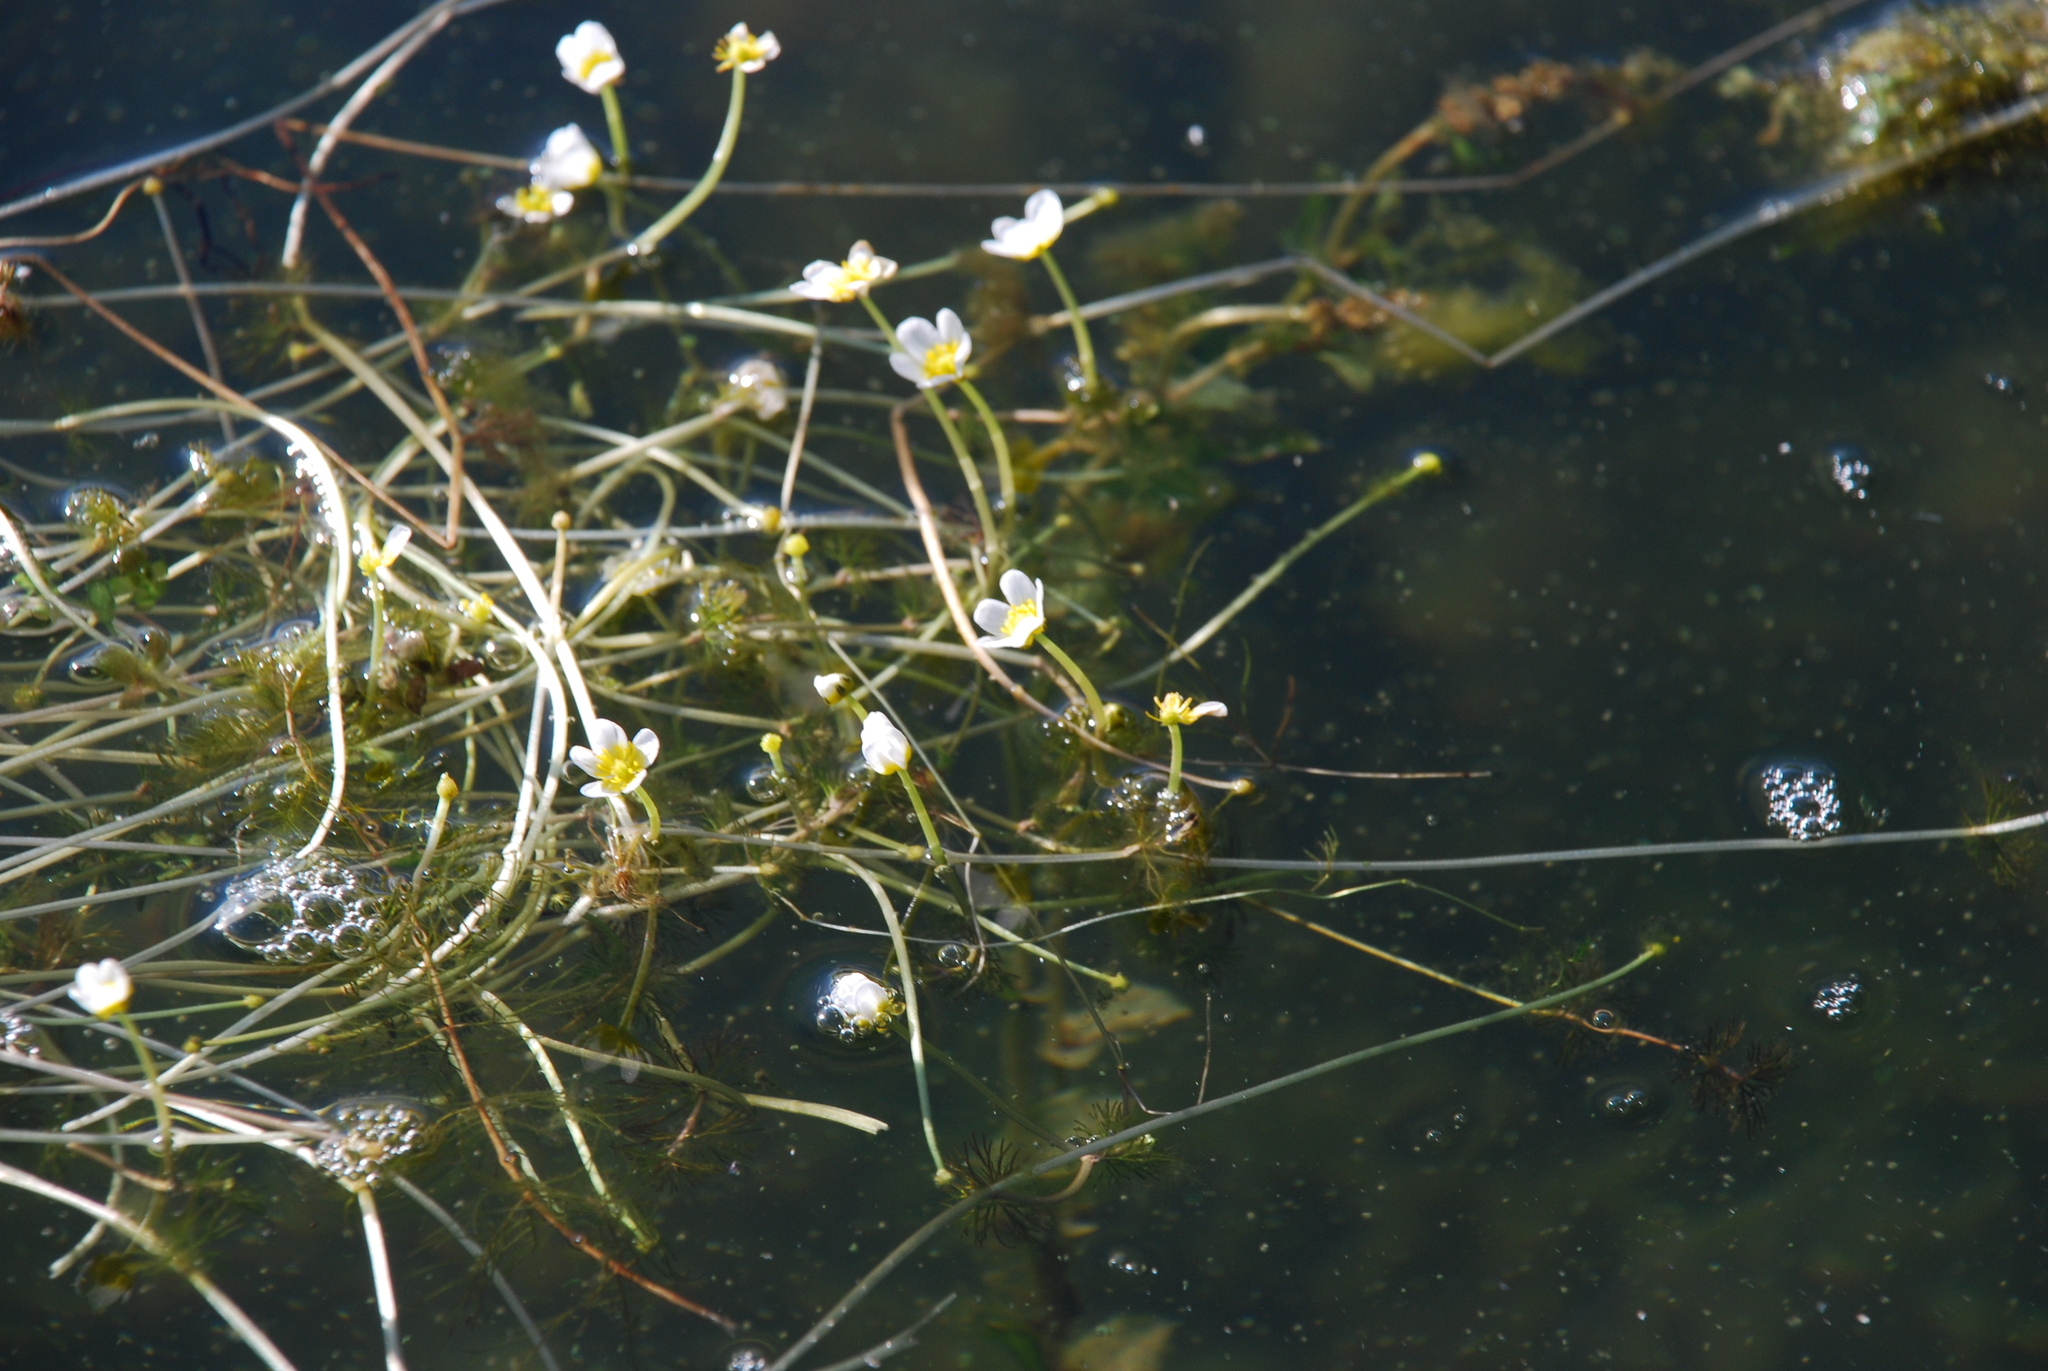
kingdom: Plantae
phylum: Tracheophyta
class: Magnoliopsida
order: Ranunculales
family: Ranunculaceae
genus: Ranunculus
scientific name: Ranunculus circinatus
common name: Fan-leaved water-crowfoot
